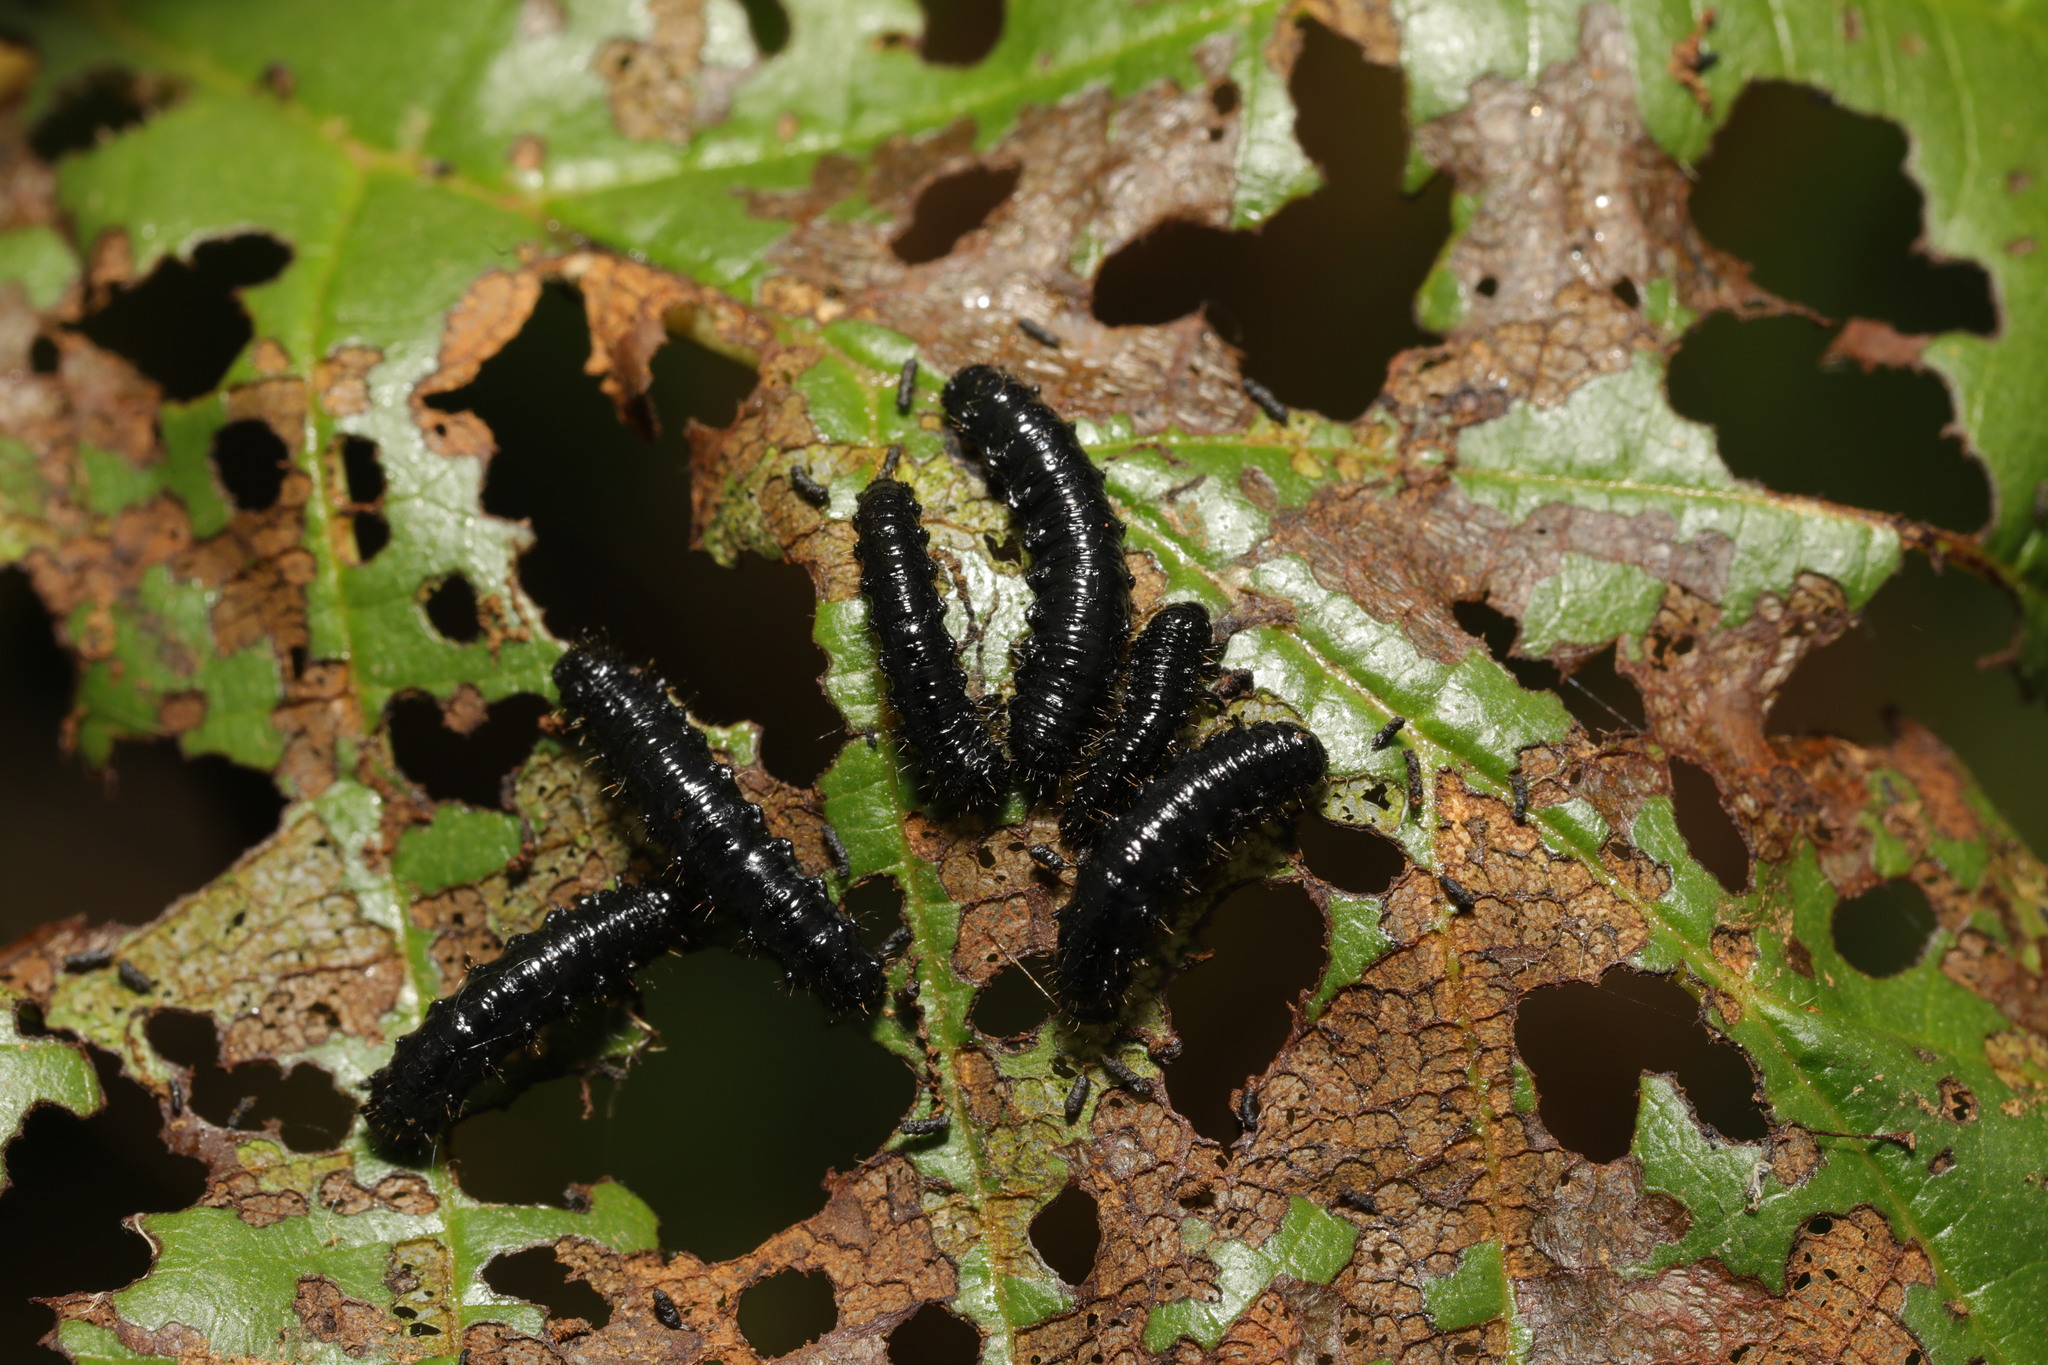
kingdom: Animalia
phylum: Arthropoda
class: Insecta
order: Coleoptera
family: Chrysomelidae
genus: Agelastica
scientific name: Agelastica alni
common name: Alder leaf beetle
